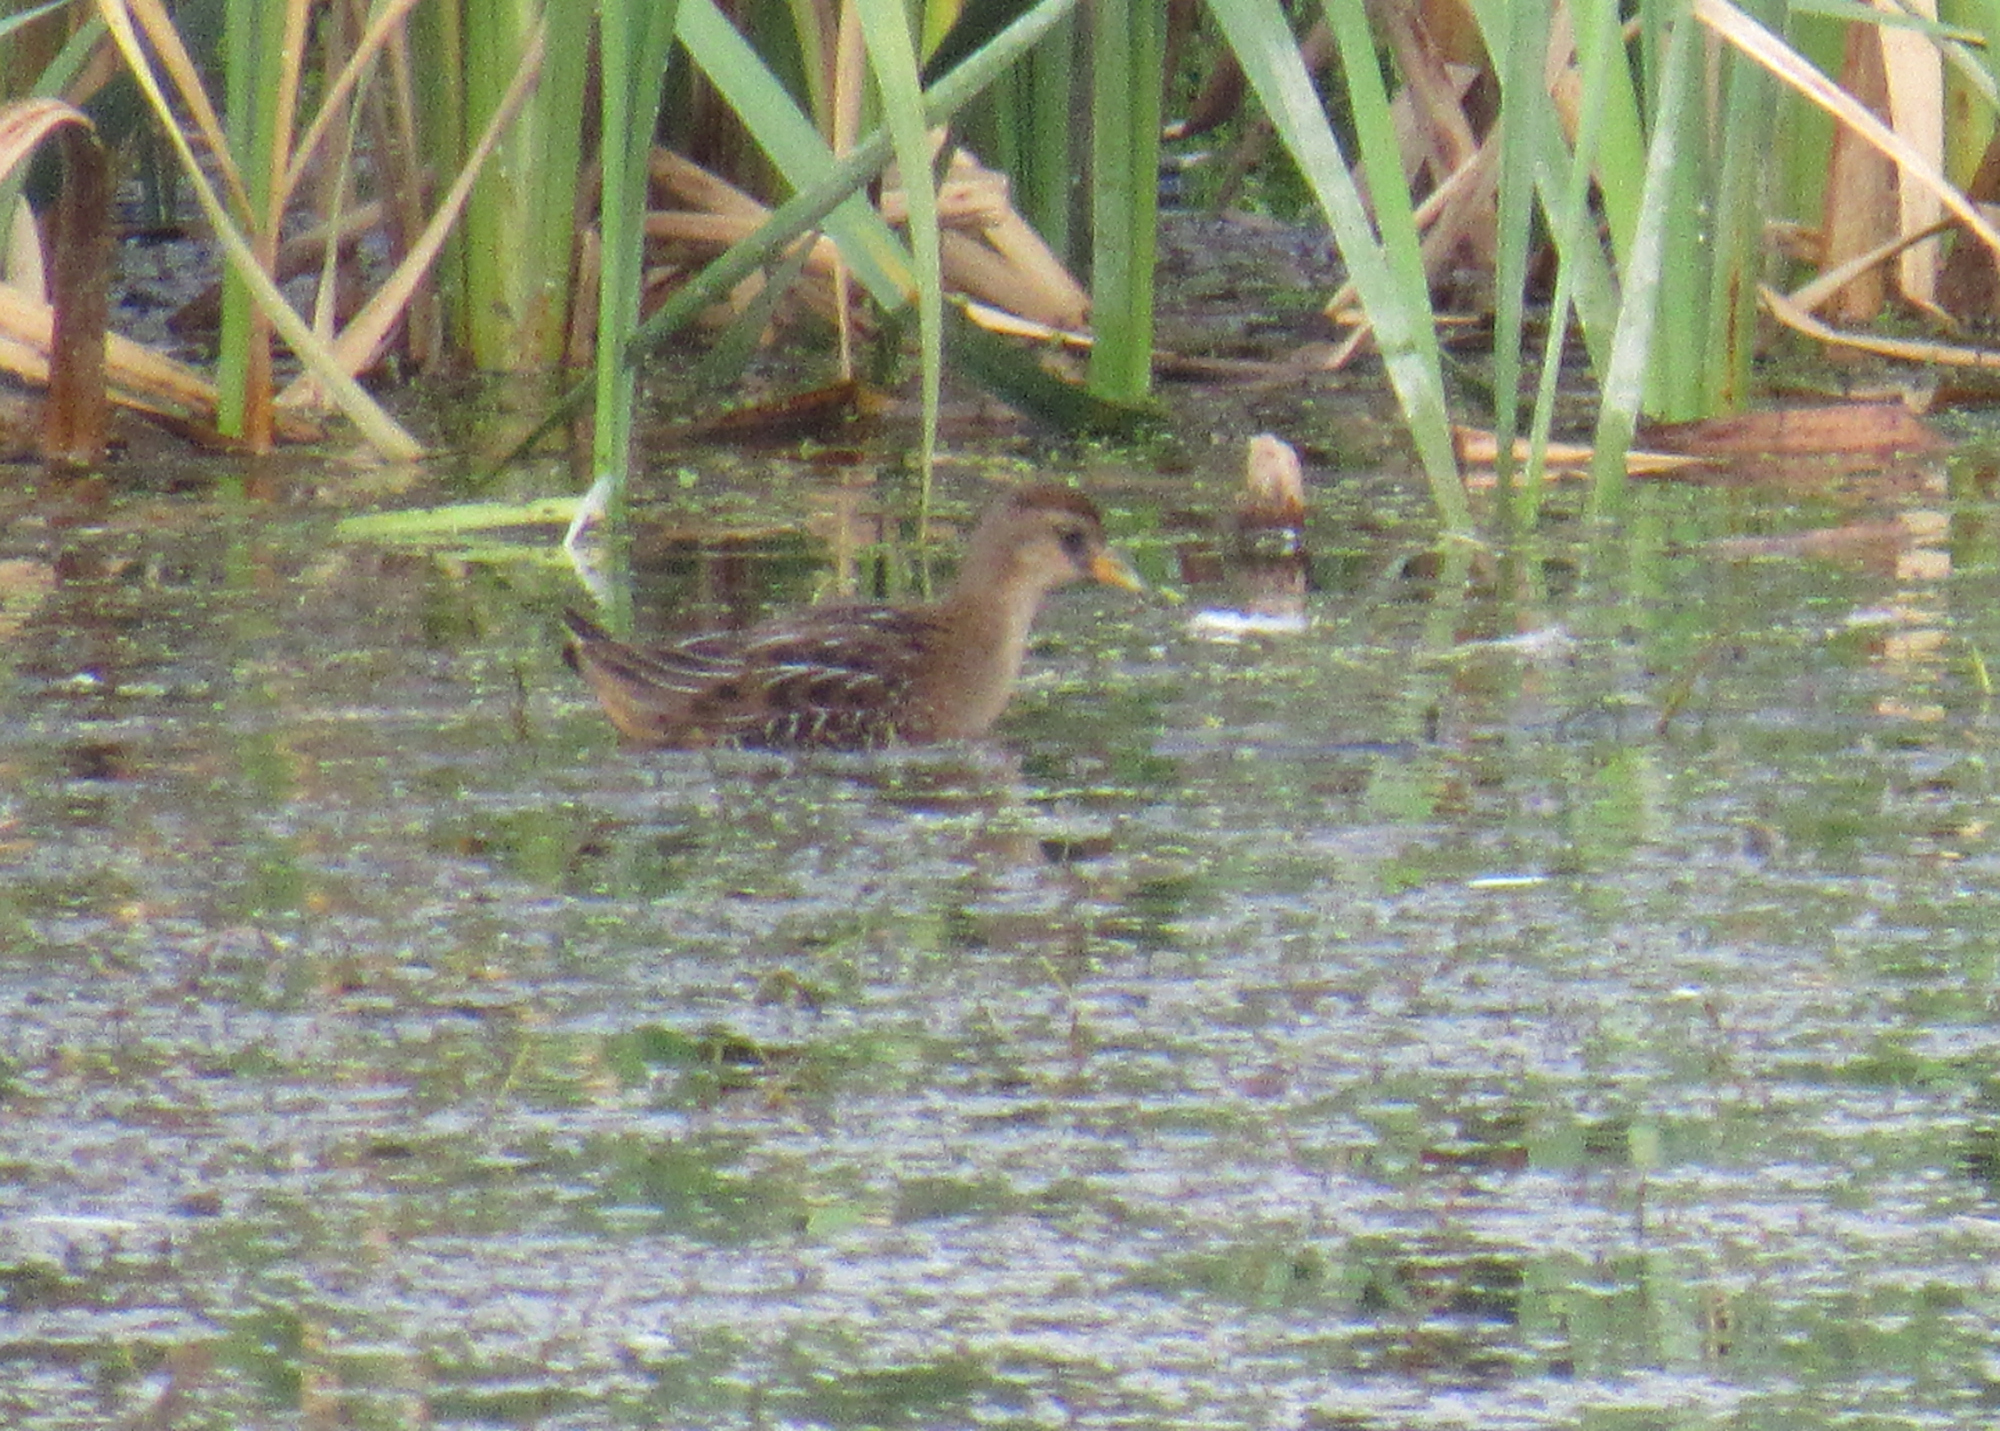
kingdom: Animalia
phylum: Chordata
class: Aves
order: Gruiformes
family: Rallidae
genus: Porzana
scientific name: Porzana carolina
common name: Sora
